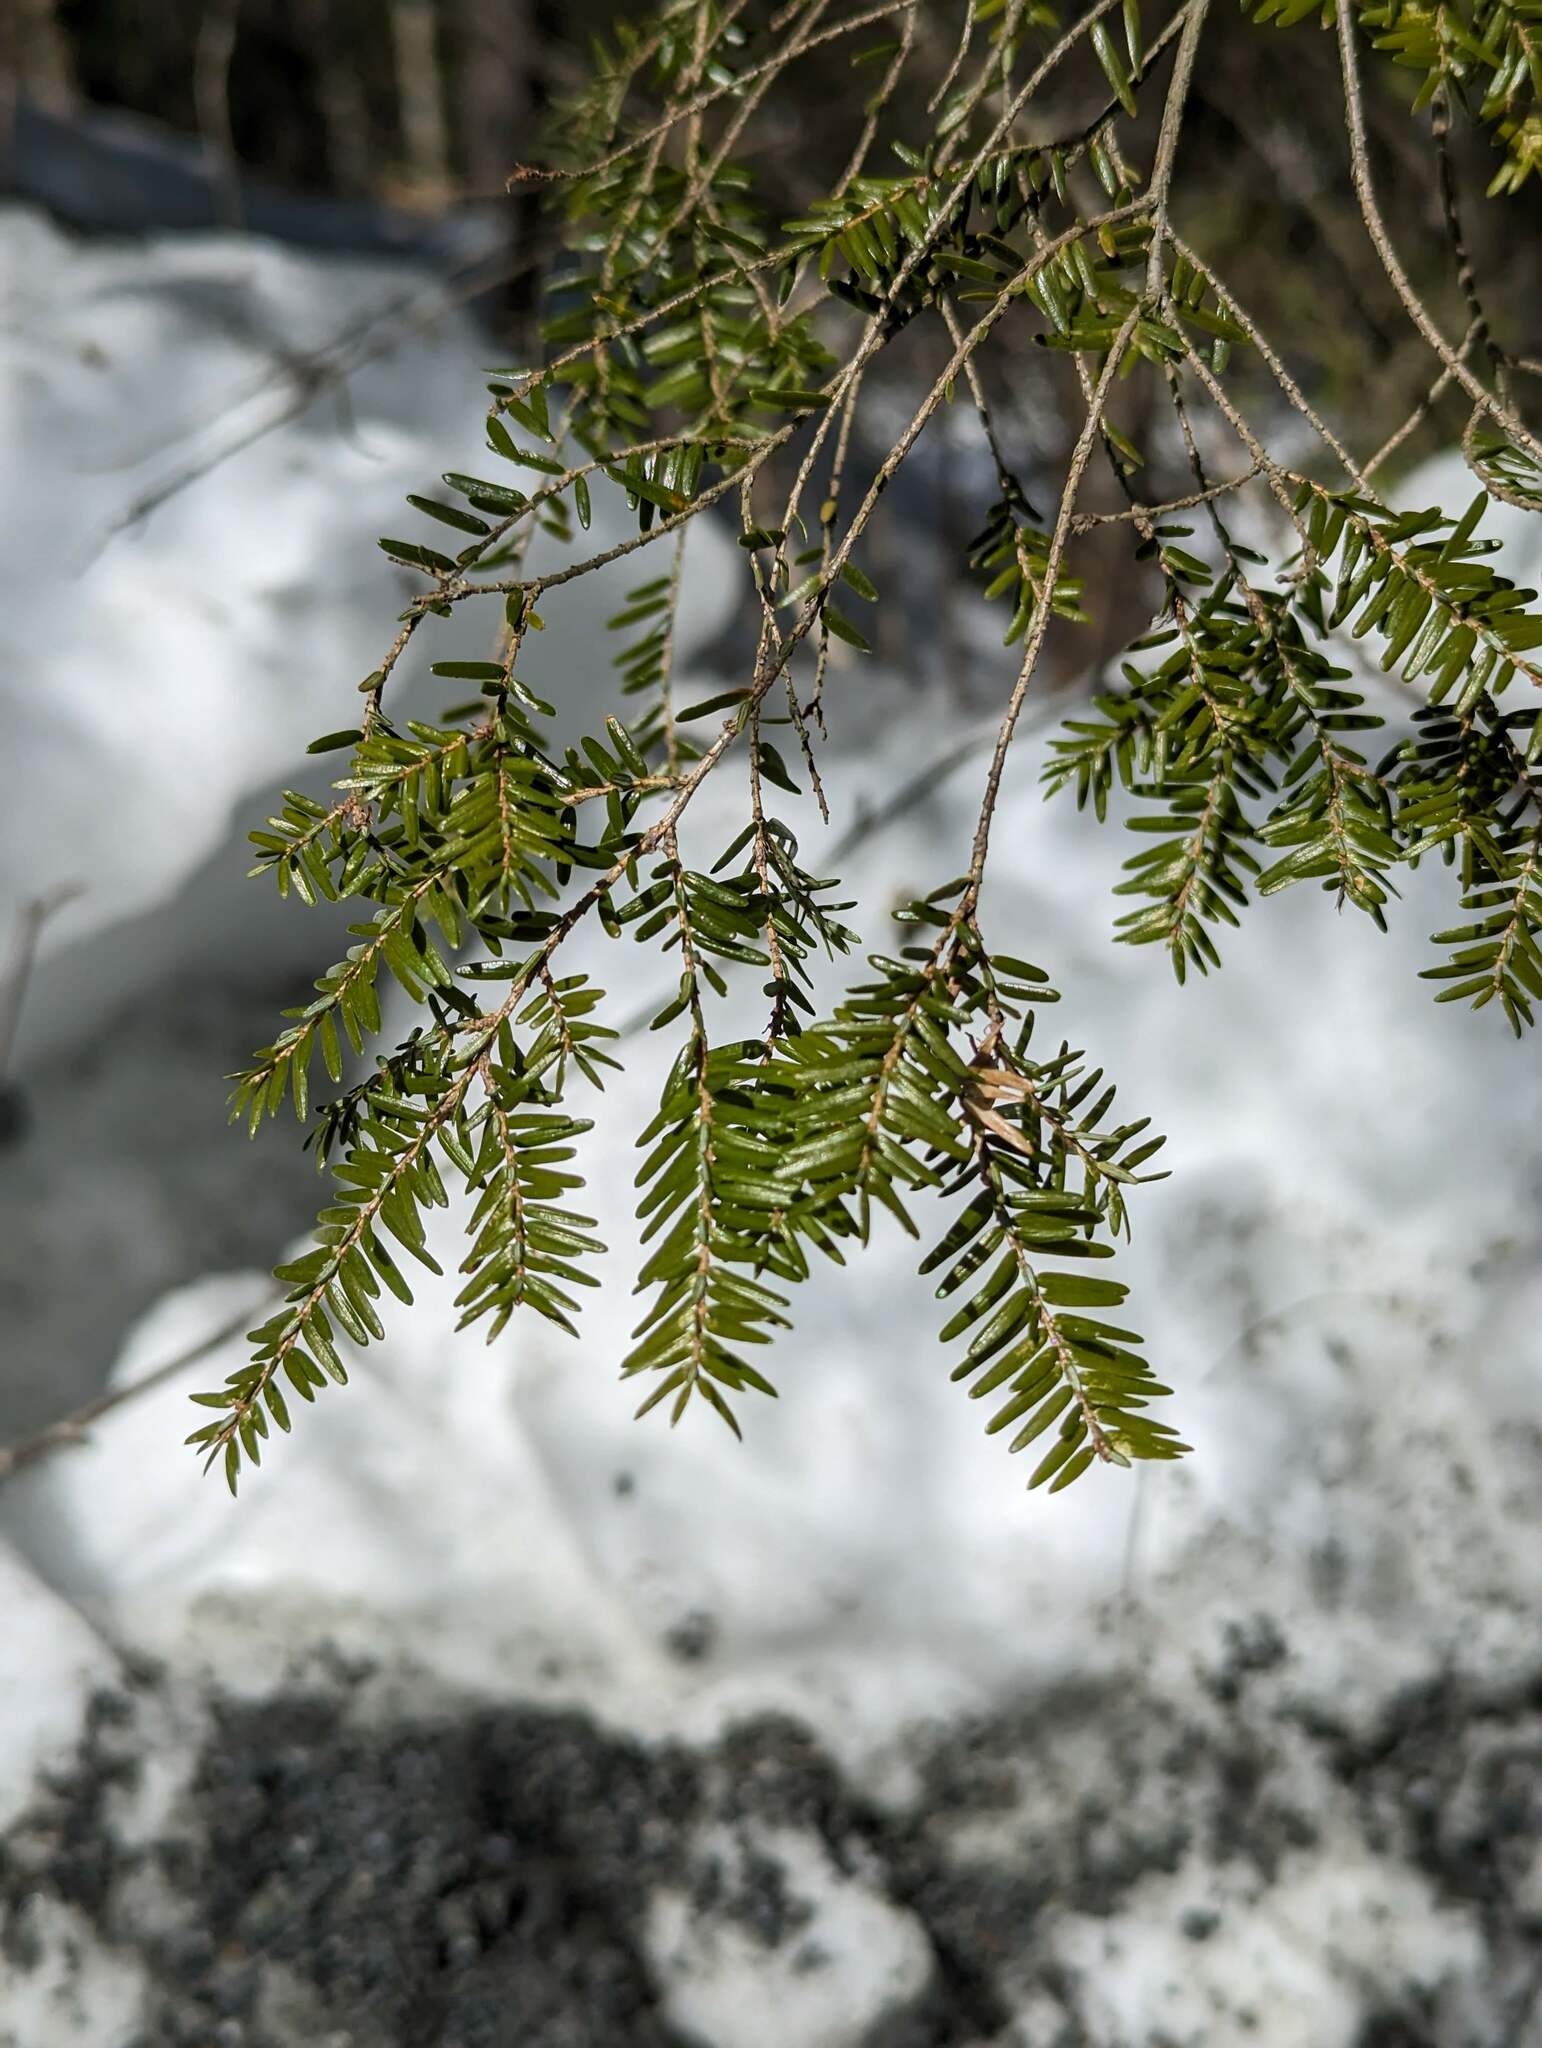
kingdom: Plantae
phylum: Tracheophyta
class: Pinopsida
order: Pinales
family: Pinaceae
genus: Tsuga
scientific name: Tsuga canadensis
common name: Eastern hemlock
